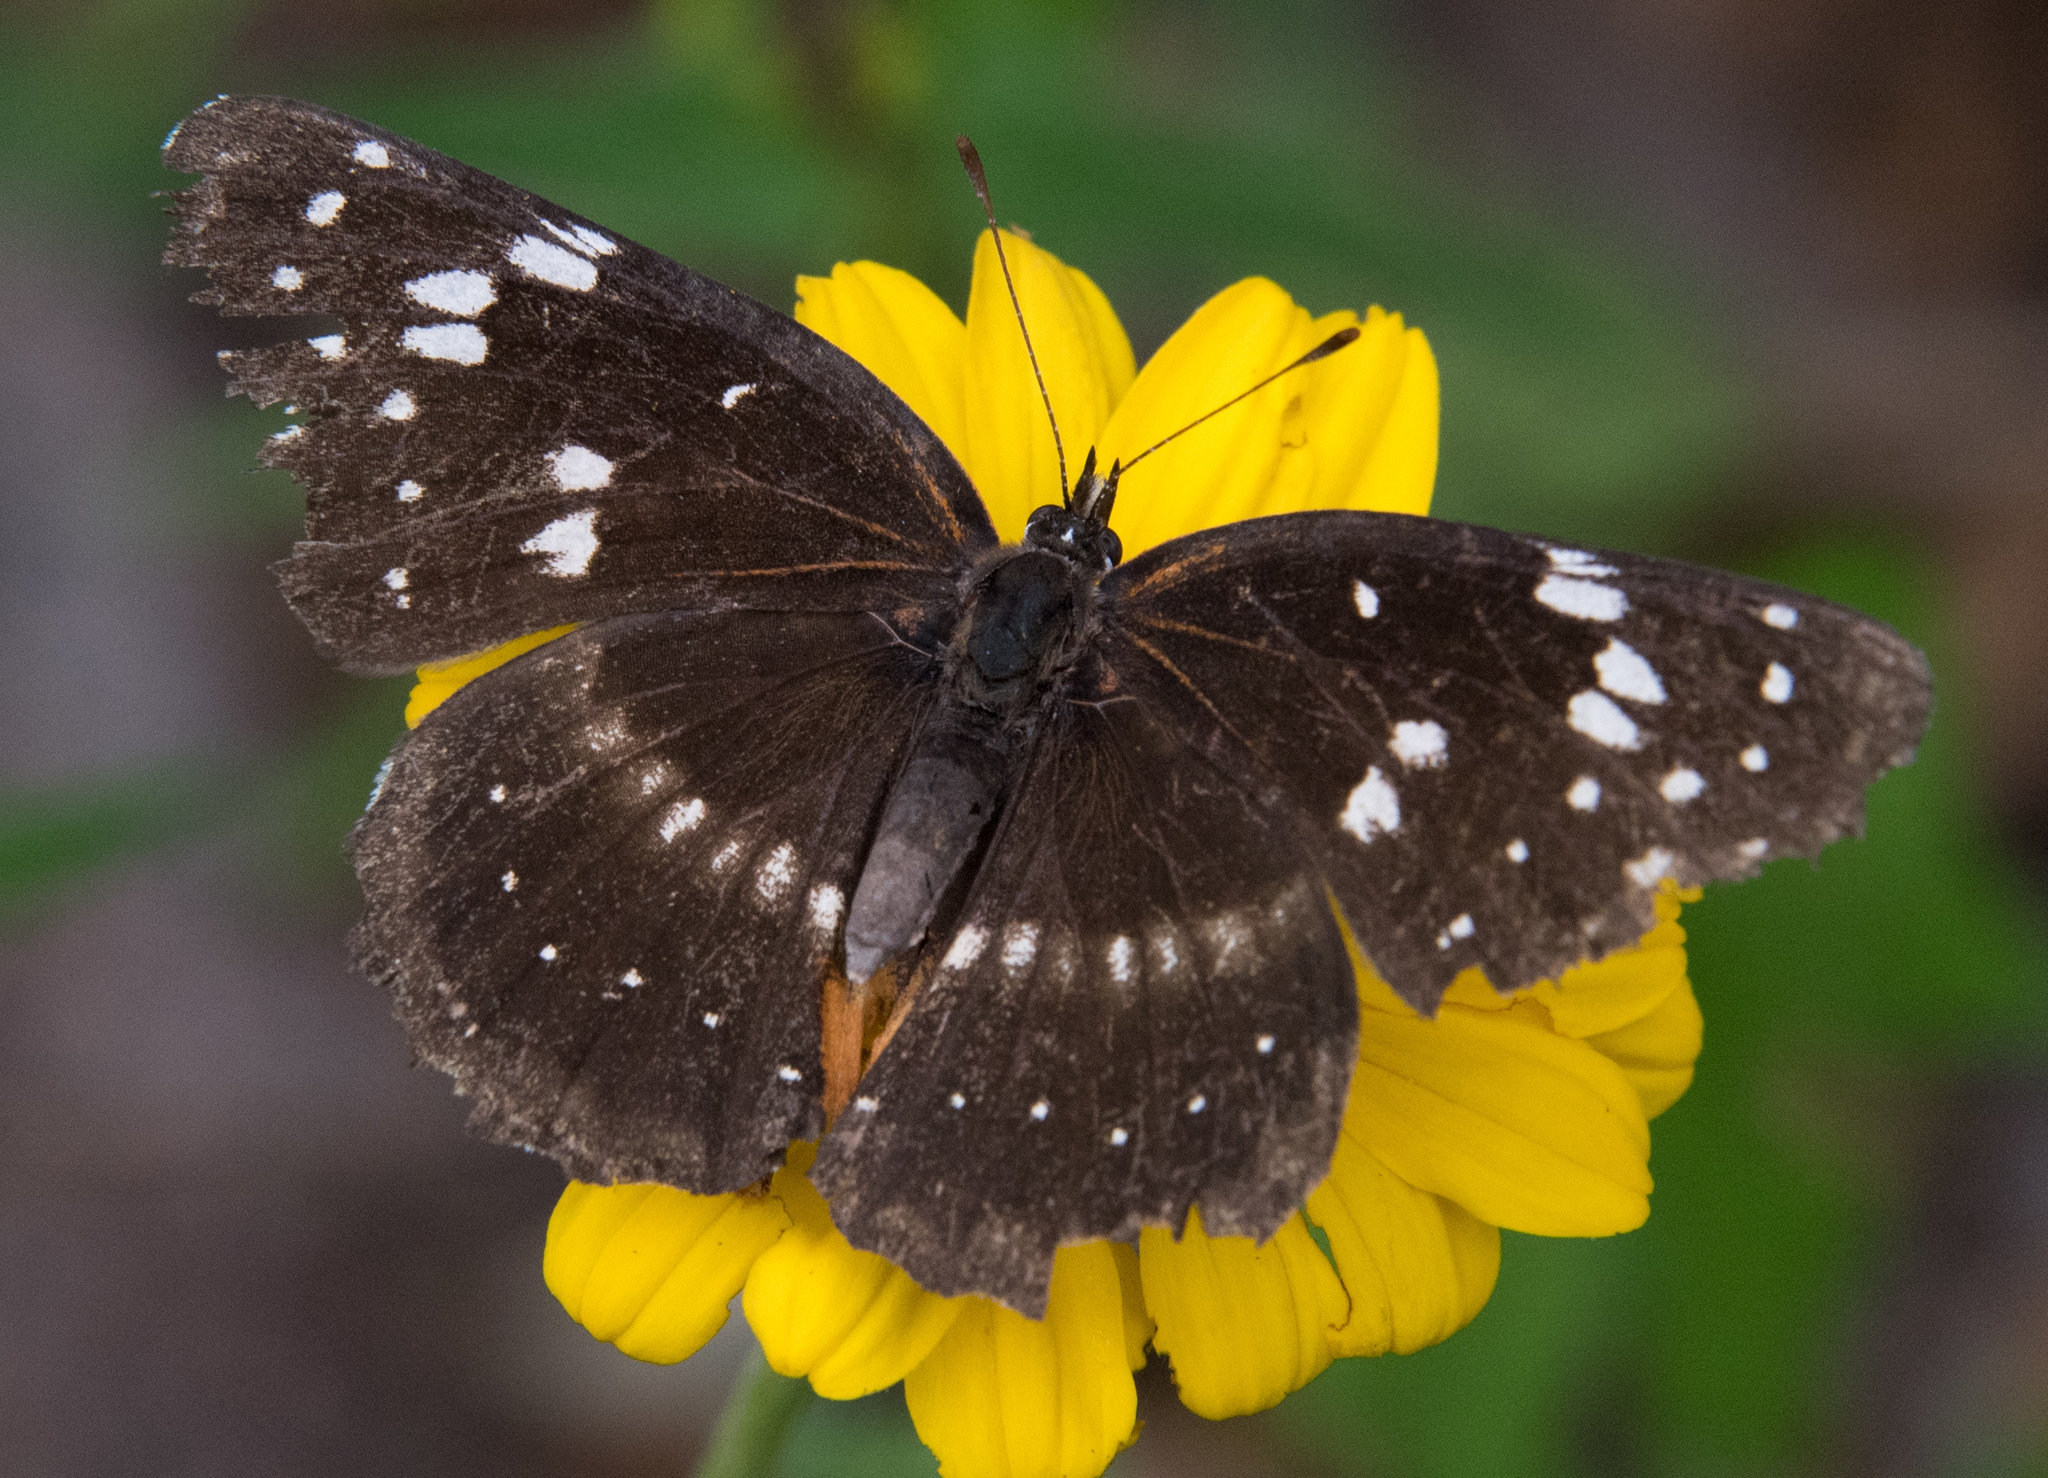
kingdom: Animalia
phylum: Arthropoda
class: Insecta
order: Lepidoptera
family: Nymphalidae
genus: Chlosyne
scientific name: Chlosyne lacinia
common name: Bordered patch
